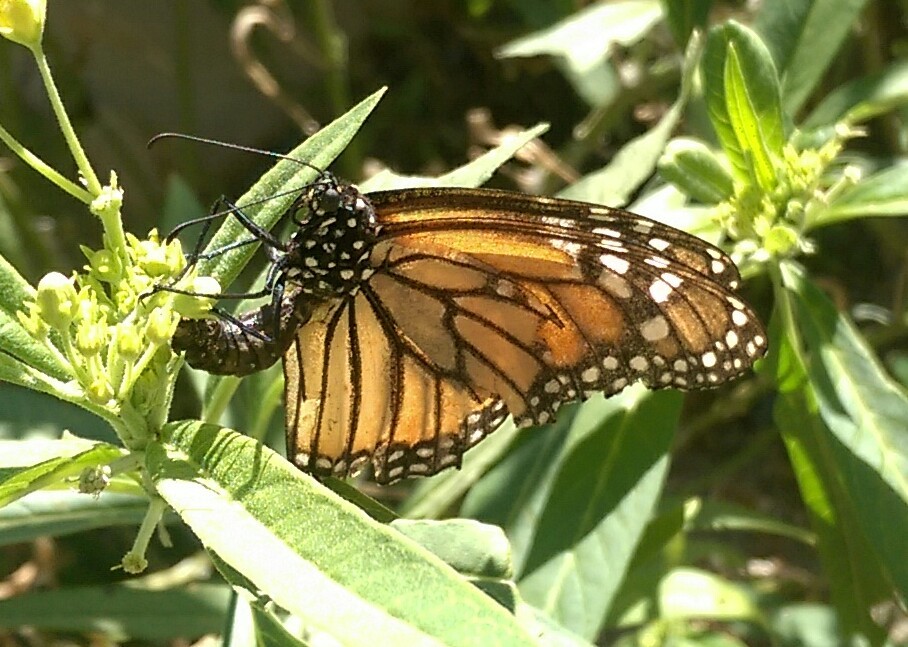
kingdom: Animalia
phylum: Arthropoda
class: Insecta
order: Lepidoptera
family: Nymphalidae
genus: Danaus
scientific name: Danaus plexippus
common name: Monarch
